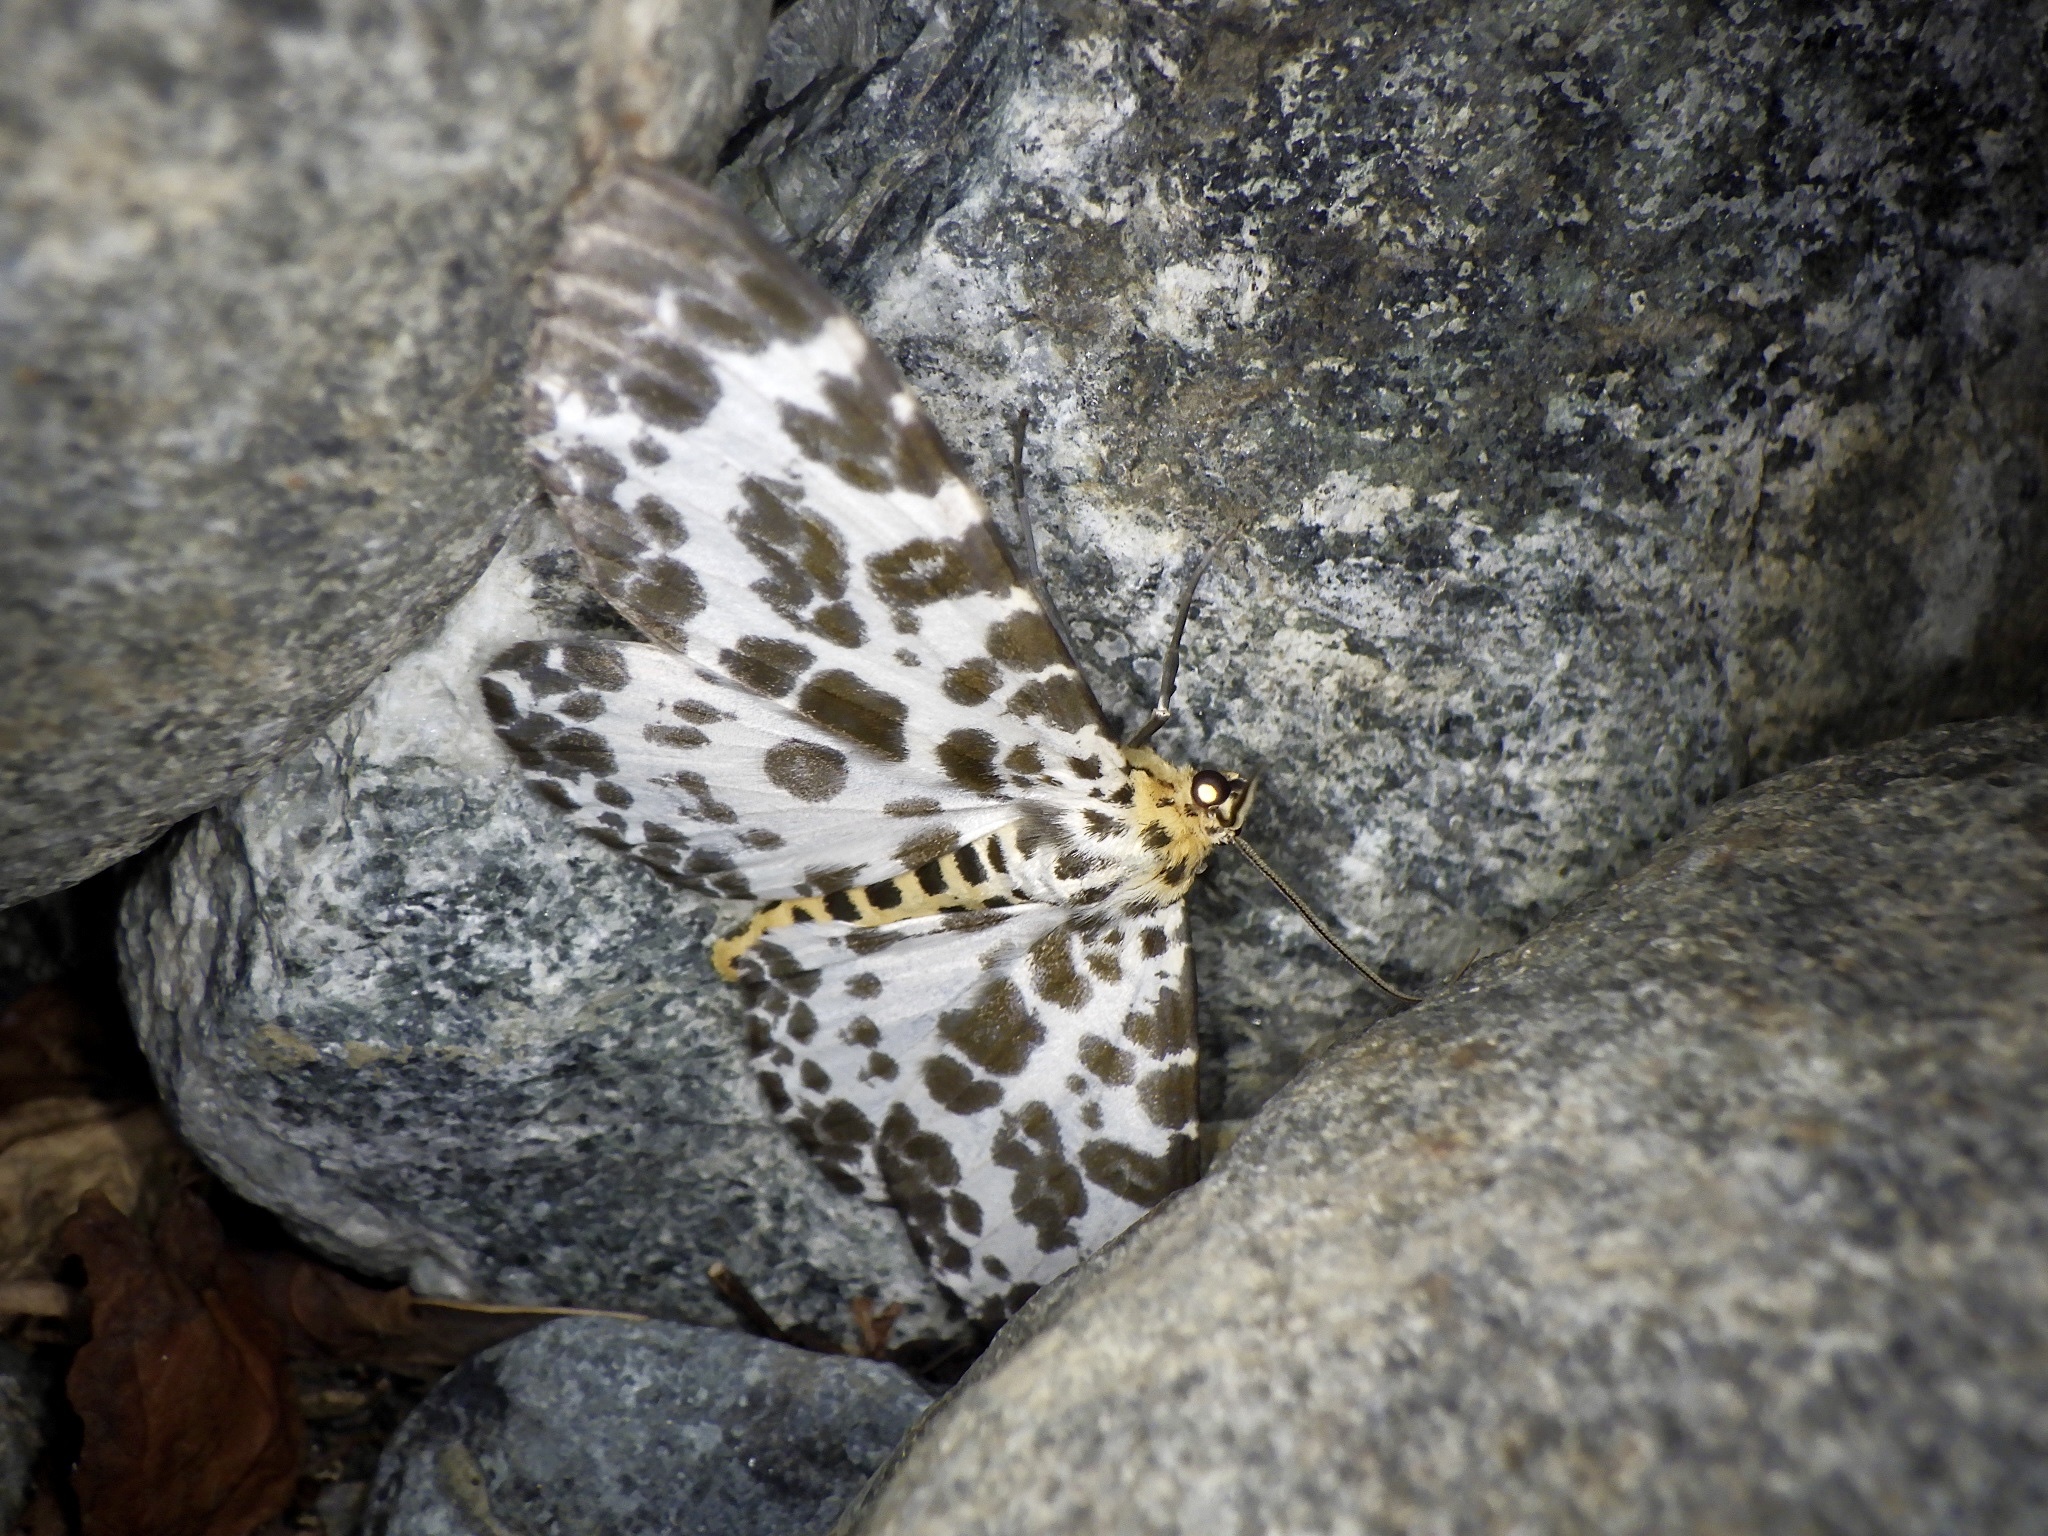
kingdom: Animalia
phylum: Arthropoda
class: Insecta
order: Lepidoptera
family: Geometridae
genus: Parapercnia
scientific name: Parapercnia giraffata
